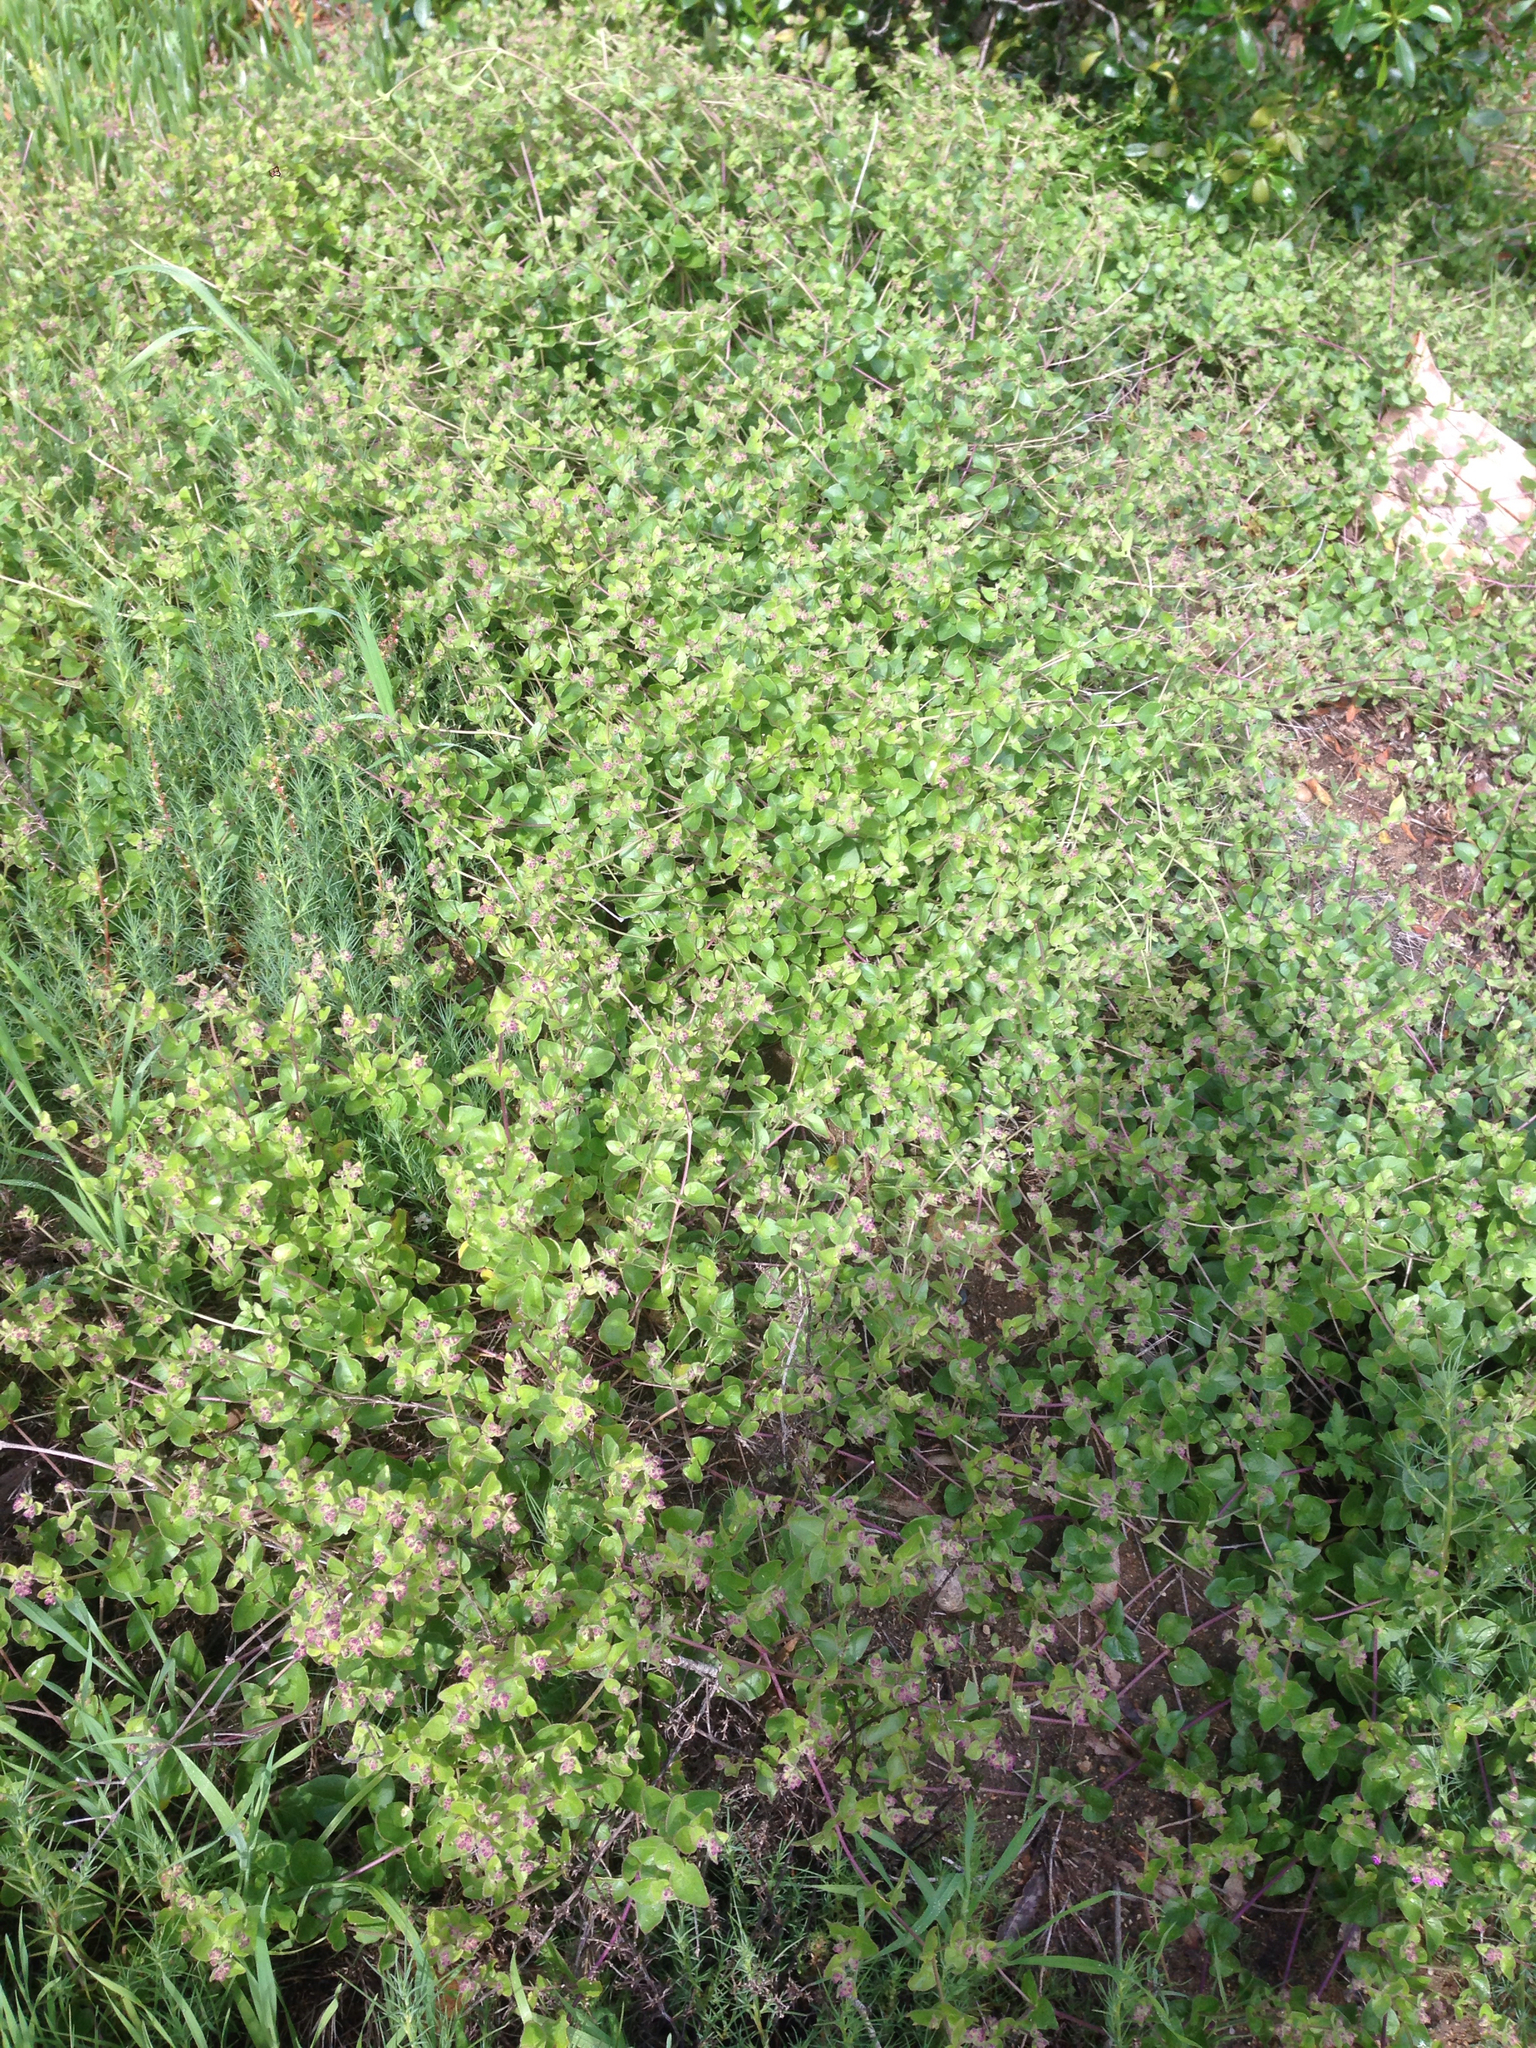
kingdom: Plantae
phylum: Tracheophyta
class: Magnoliopsida
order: Caryophyllales
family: Nyctaginaceae
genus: Mirabilis
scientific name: Mirabilis laevis
